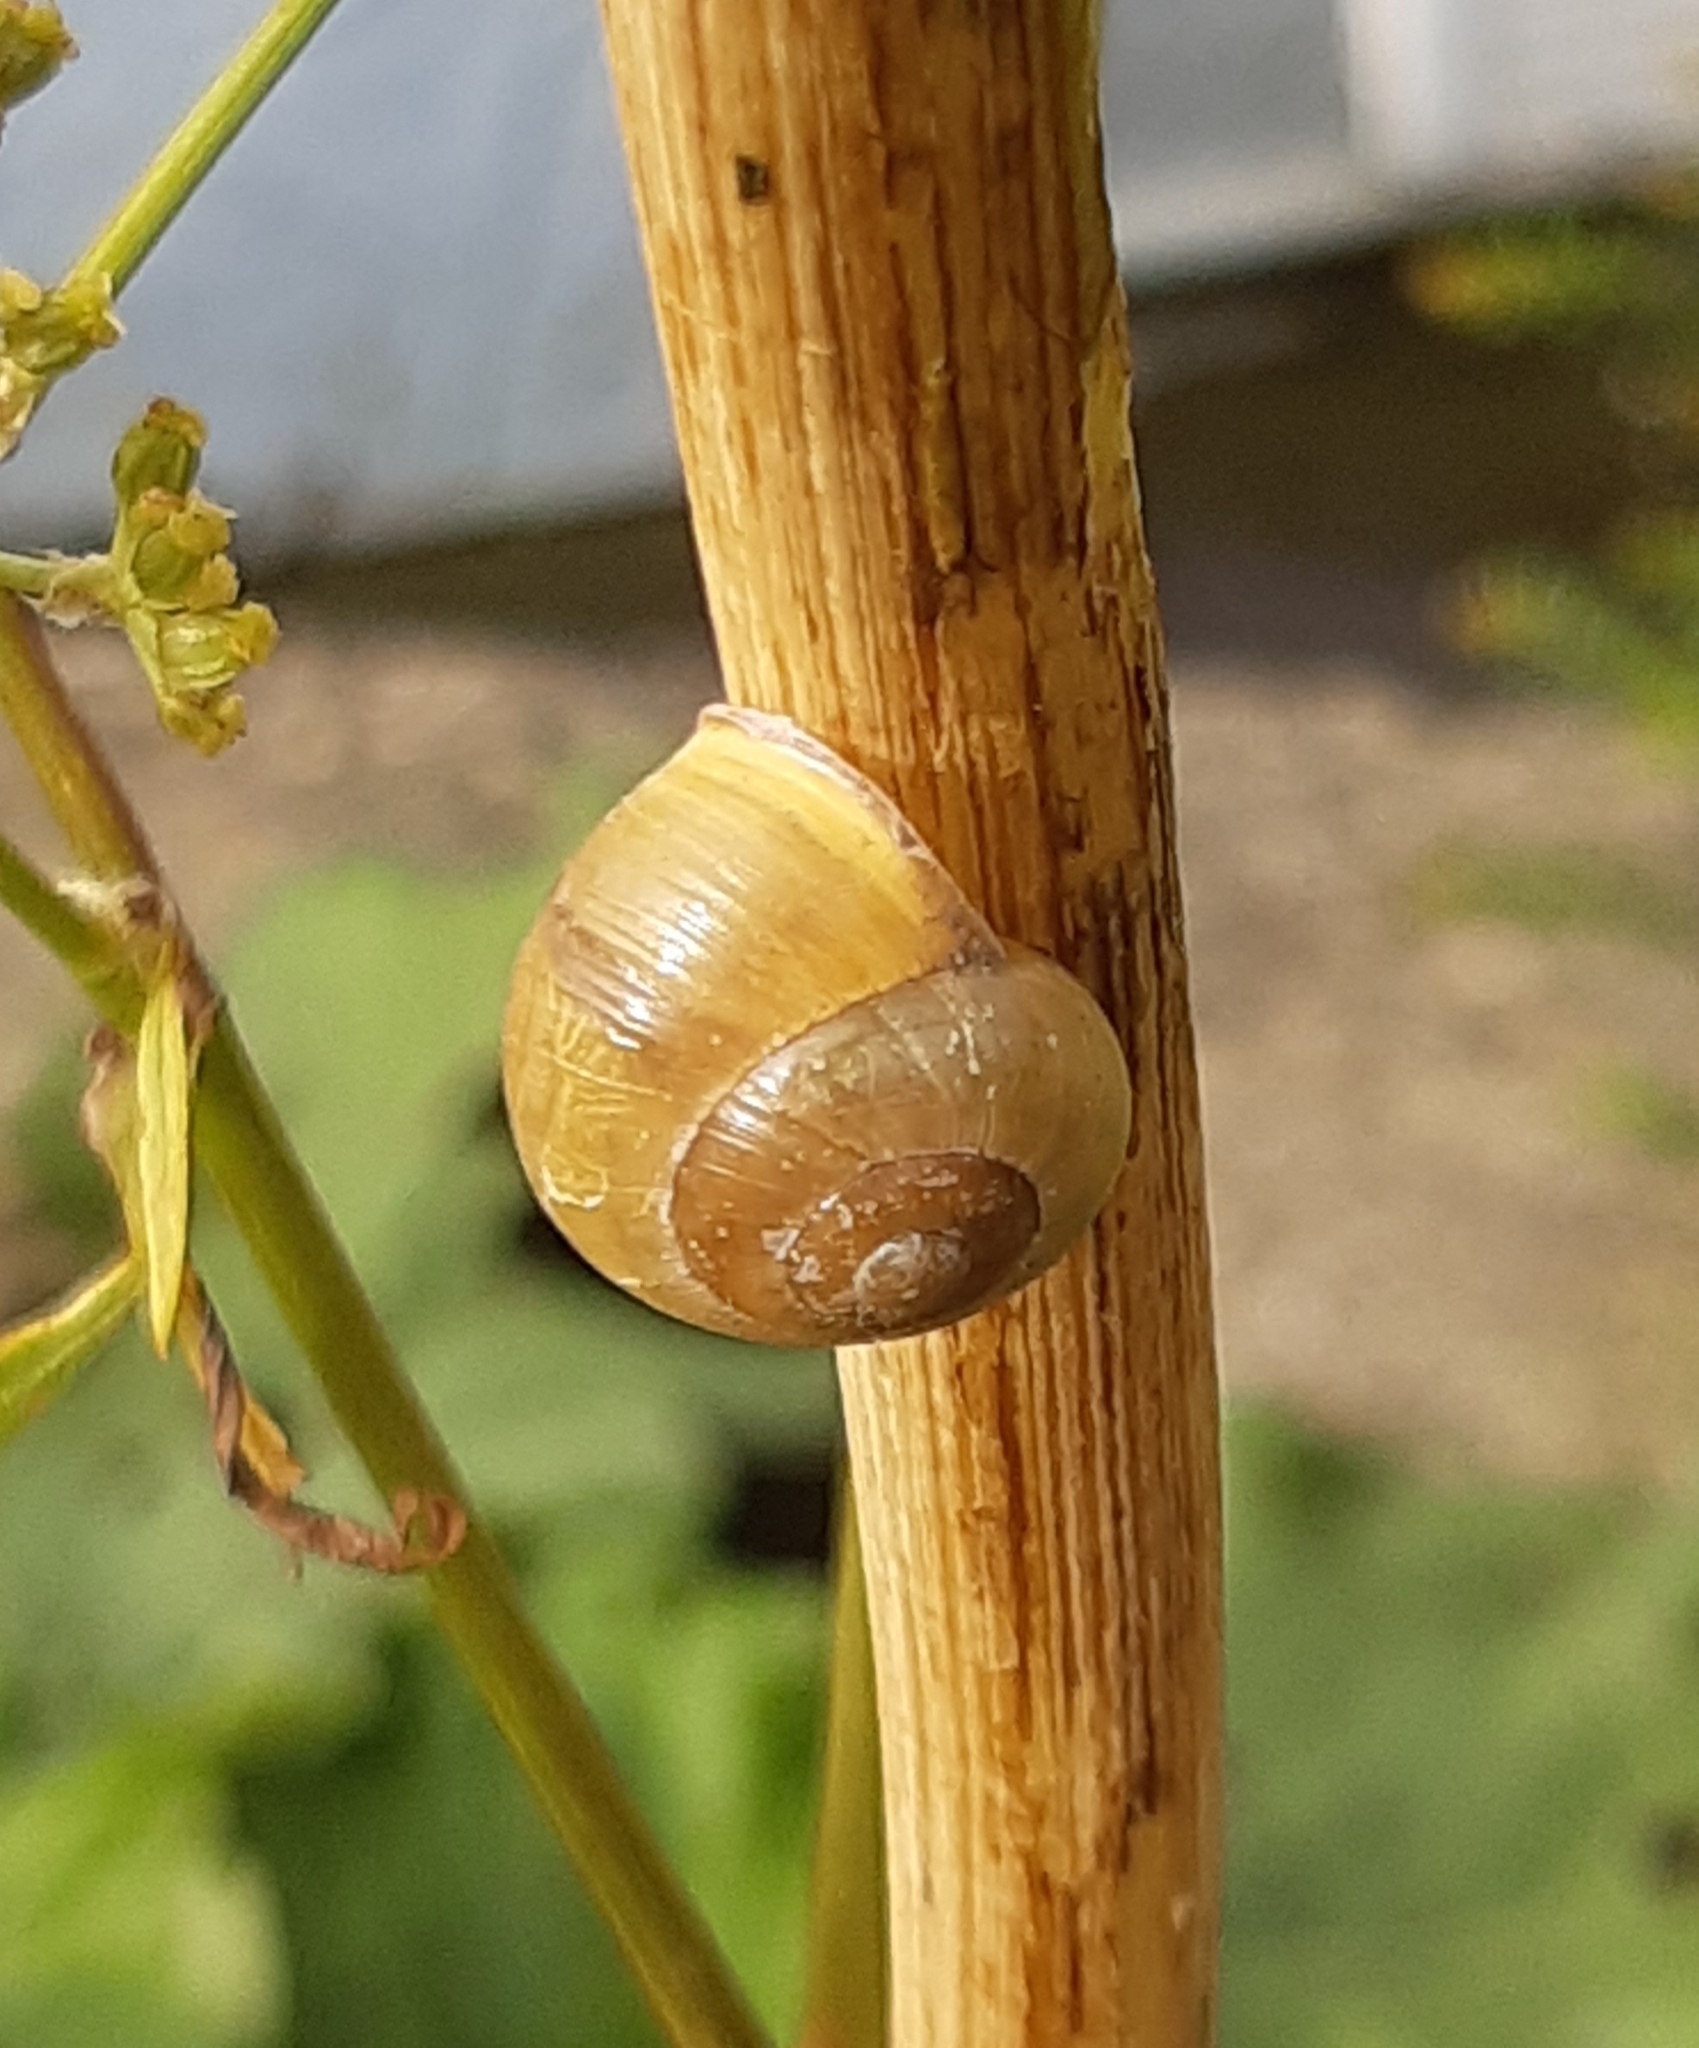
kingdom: Animalia
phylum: Mollusca
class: Gastropoda
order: Stylommatophora
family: Helicidae
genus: Cepaea
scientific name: Cepaea hortensis
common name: White-lip gardensnail
